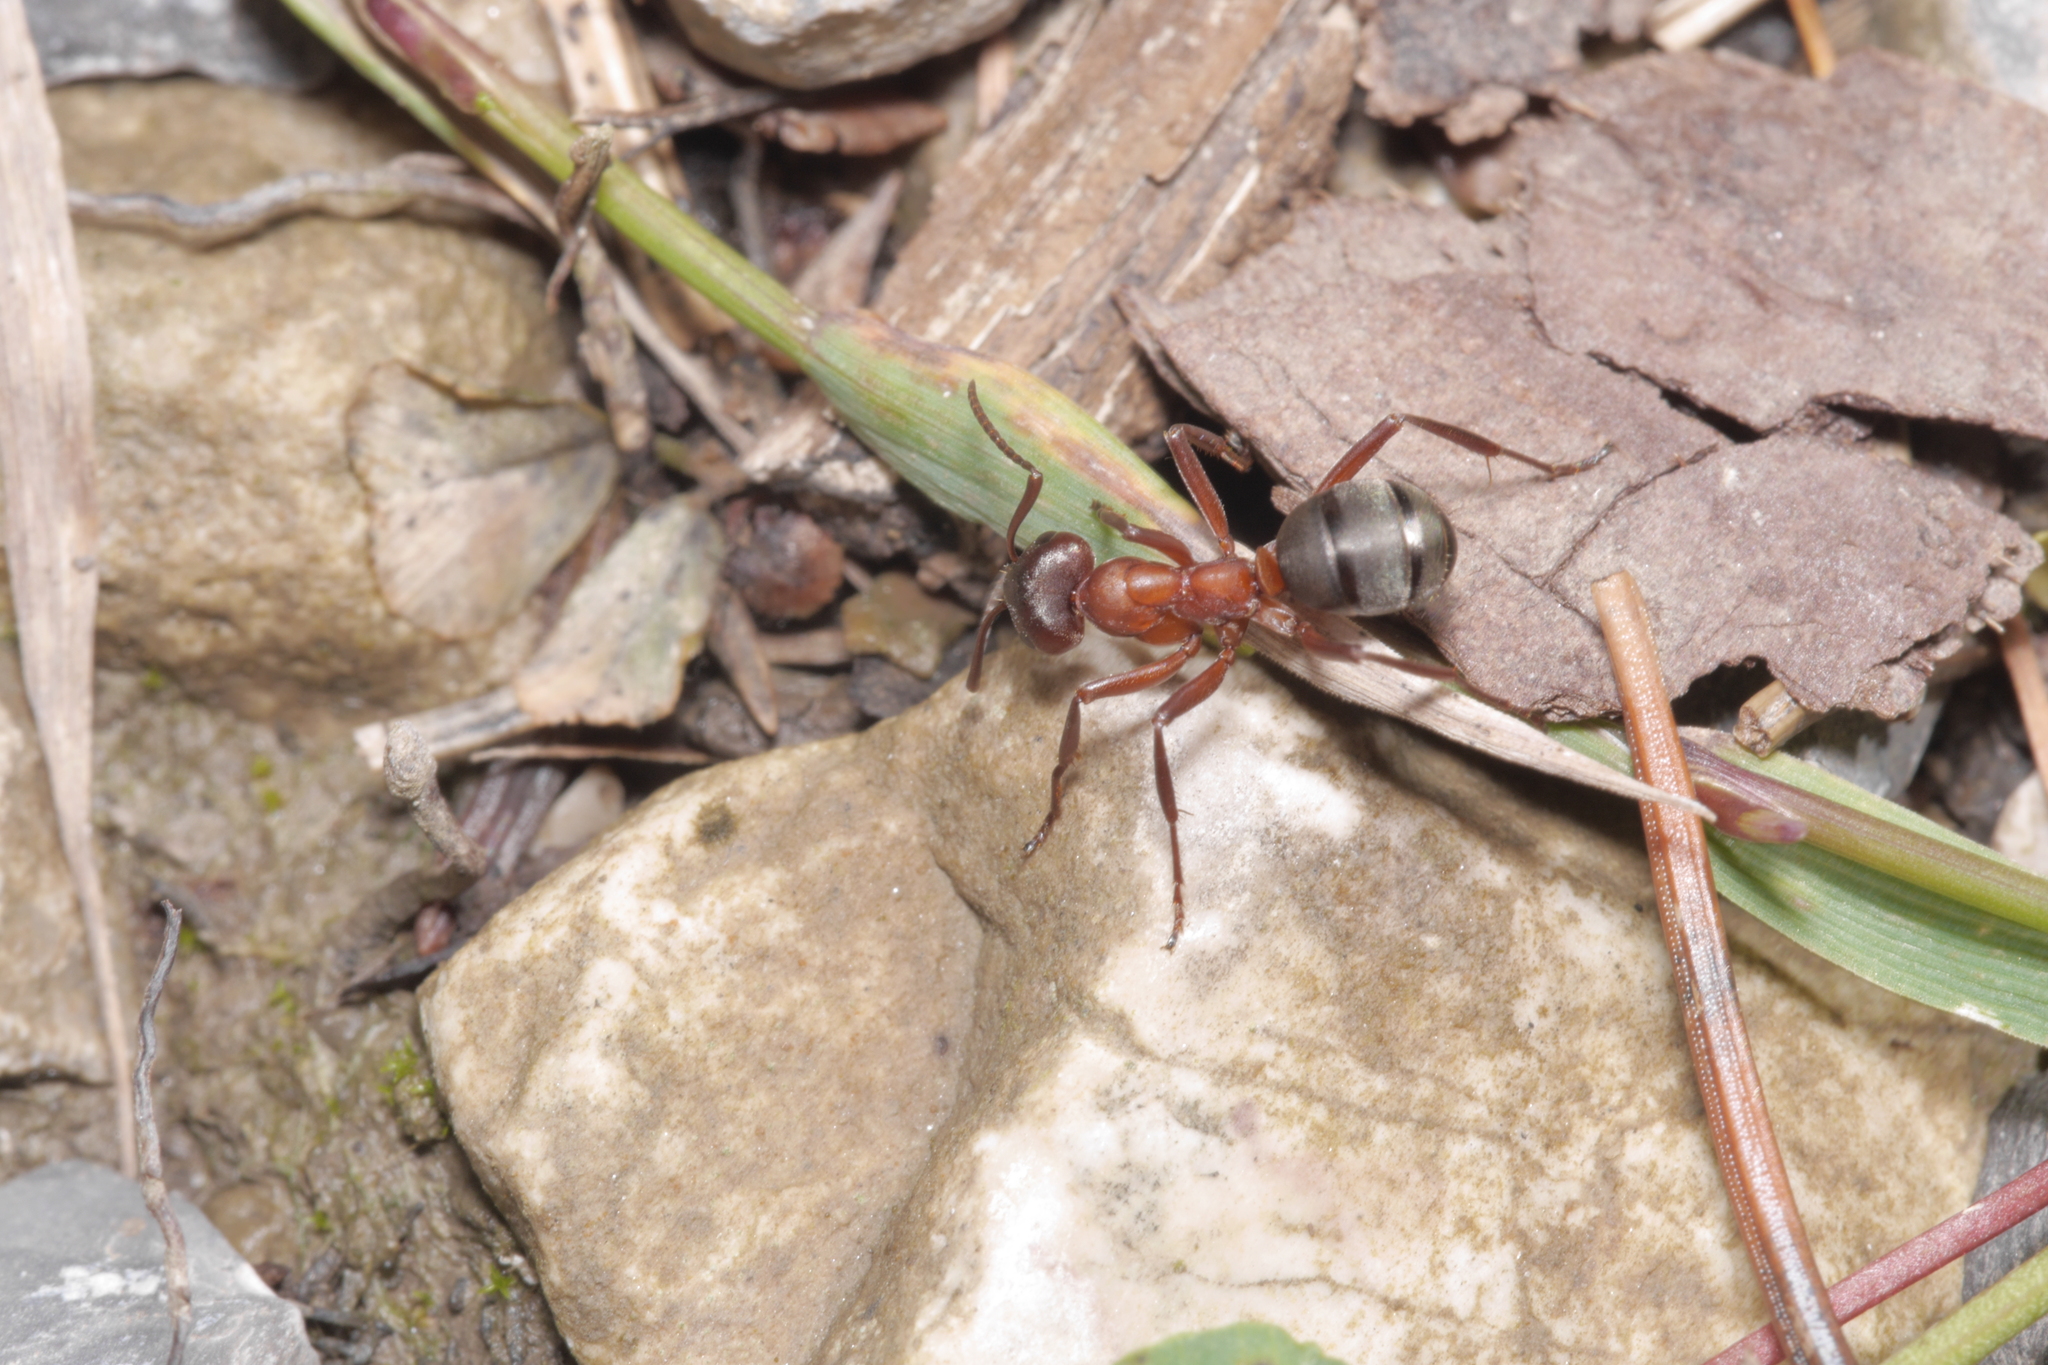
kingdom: Animalia
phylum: Arthropoda
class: Insecta
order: Hymenoptera
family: Formicidae
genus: Formica
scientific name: Formica sanguinea
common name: Blood-red ant
